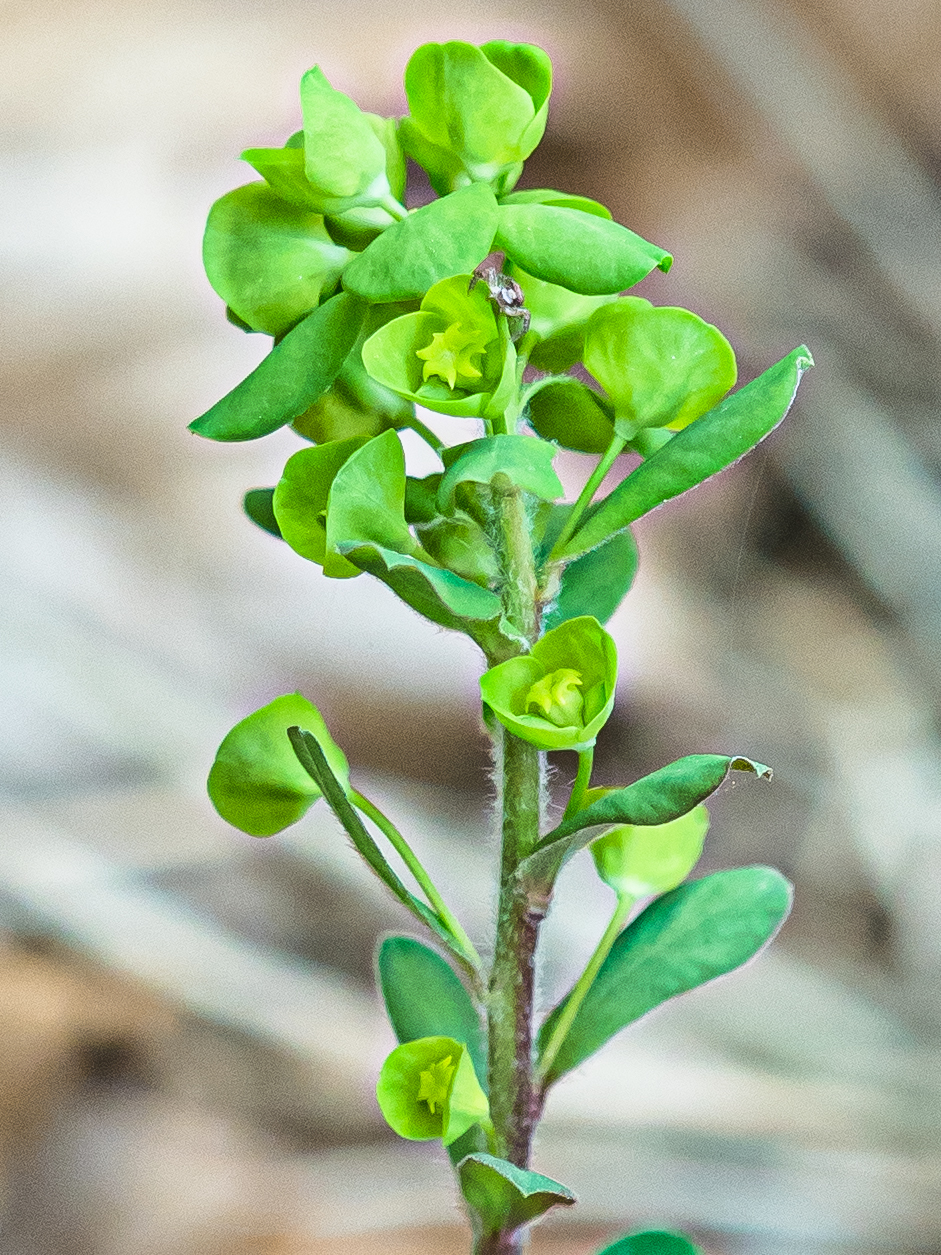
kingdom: Plantae
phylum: Tracheophyta
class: Magnoliopsida
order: Malpighiales
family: Euphorbiaceae
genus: Euphorbia
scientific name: Euphorbia amygdaloides
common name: Wood spurge
